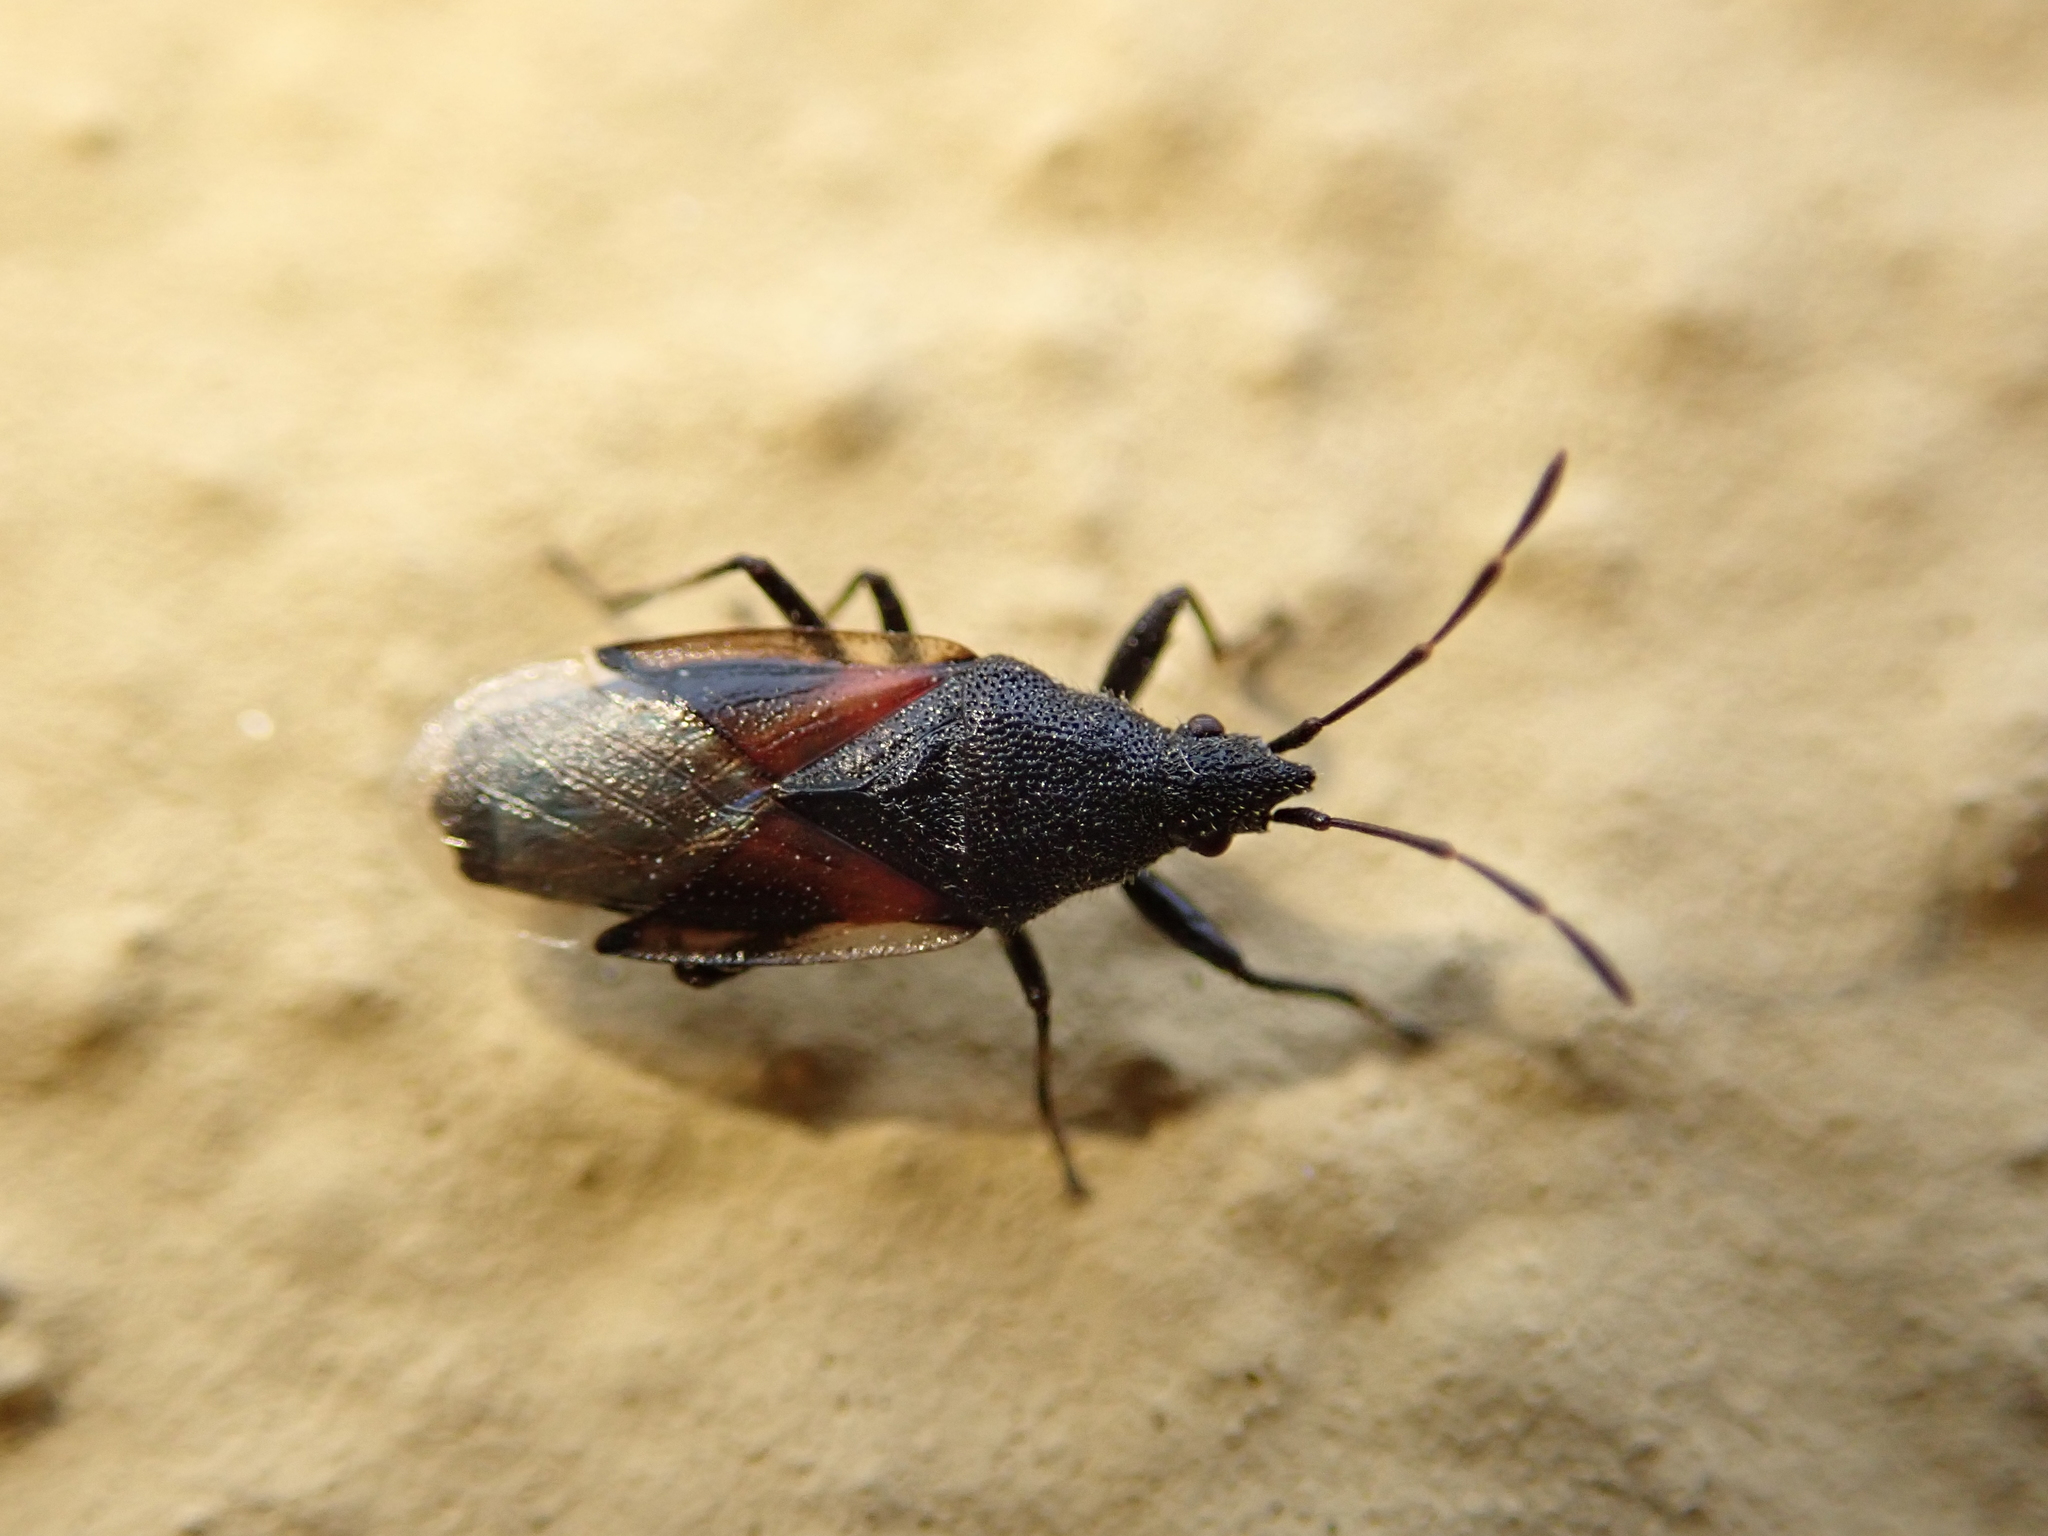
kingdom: Animalia
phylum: Arthropoda
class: Insecta
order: Hemiptera
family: Oxycarenidae
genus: Oxycarenus
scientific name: Oxycarenus lavaterae
